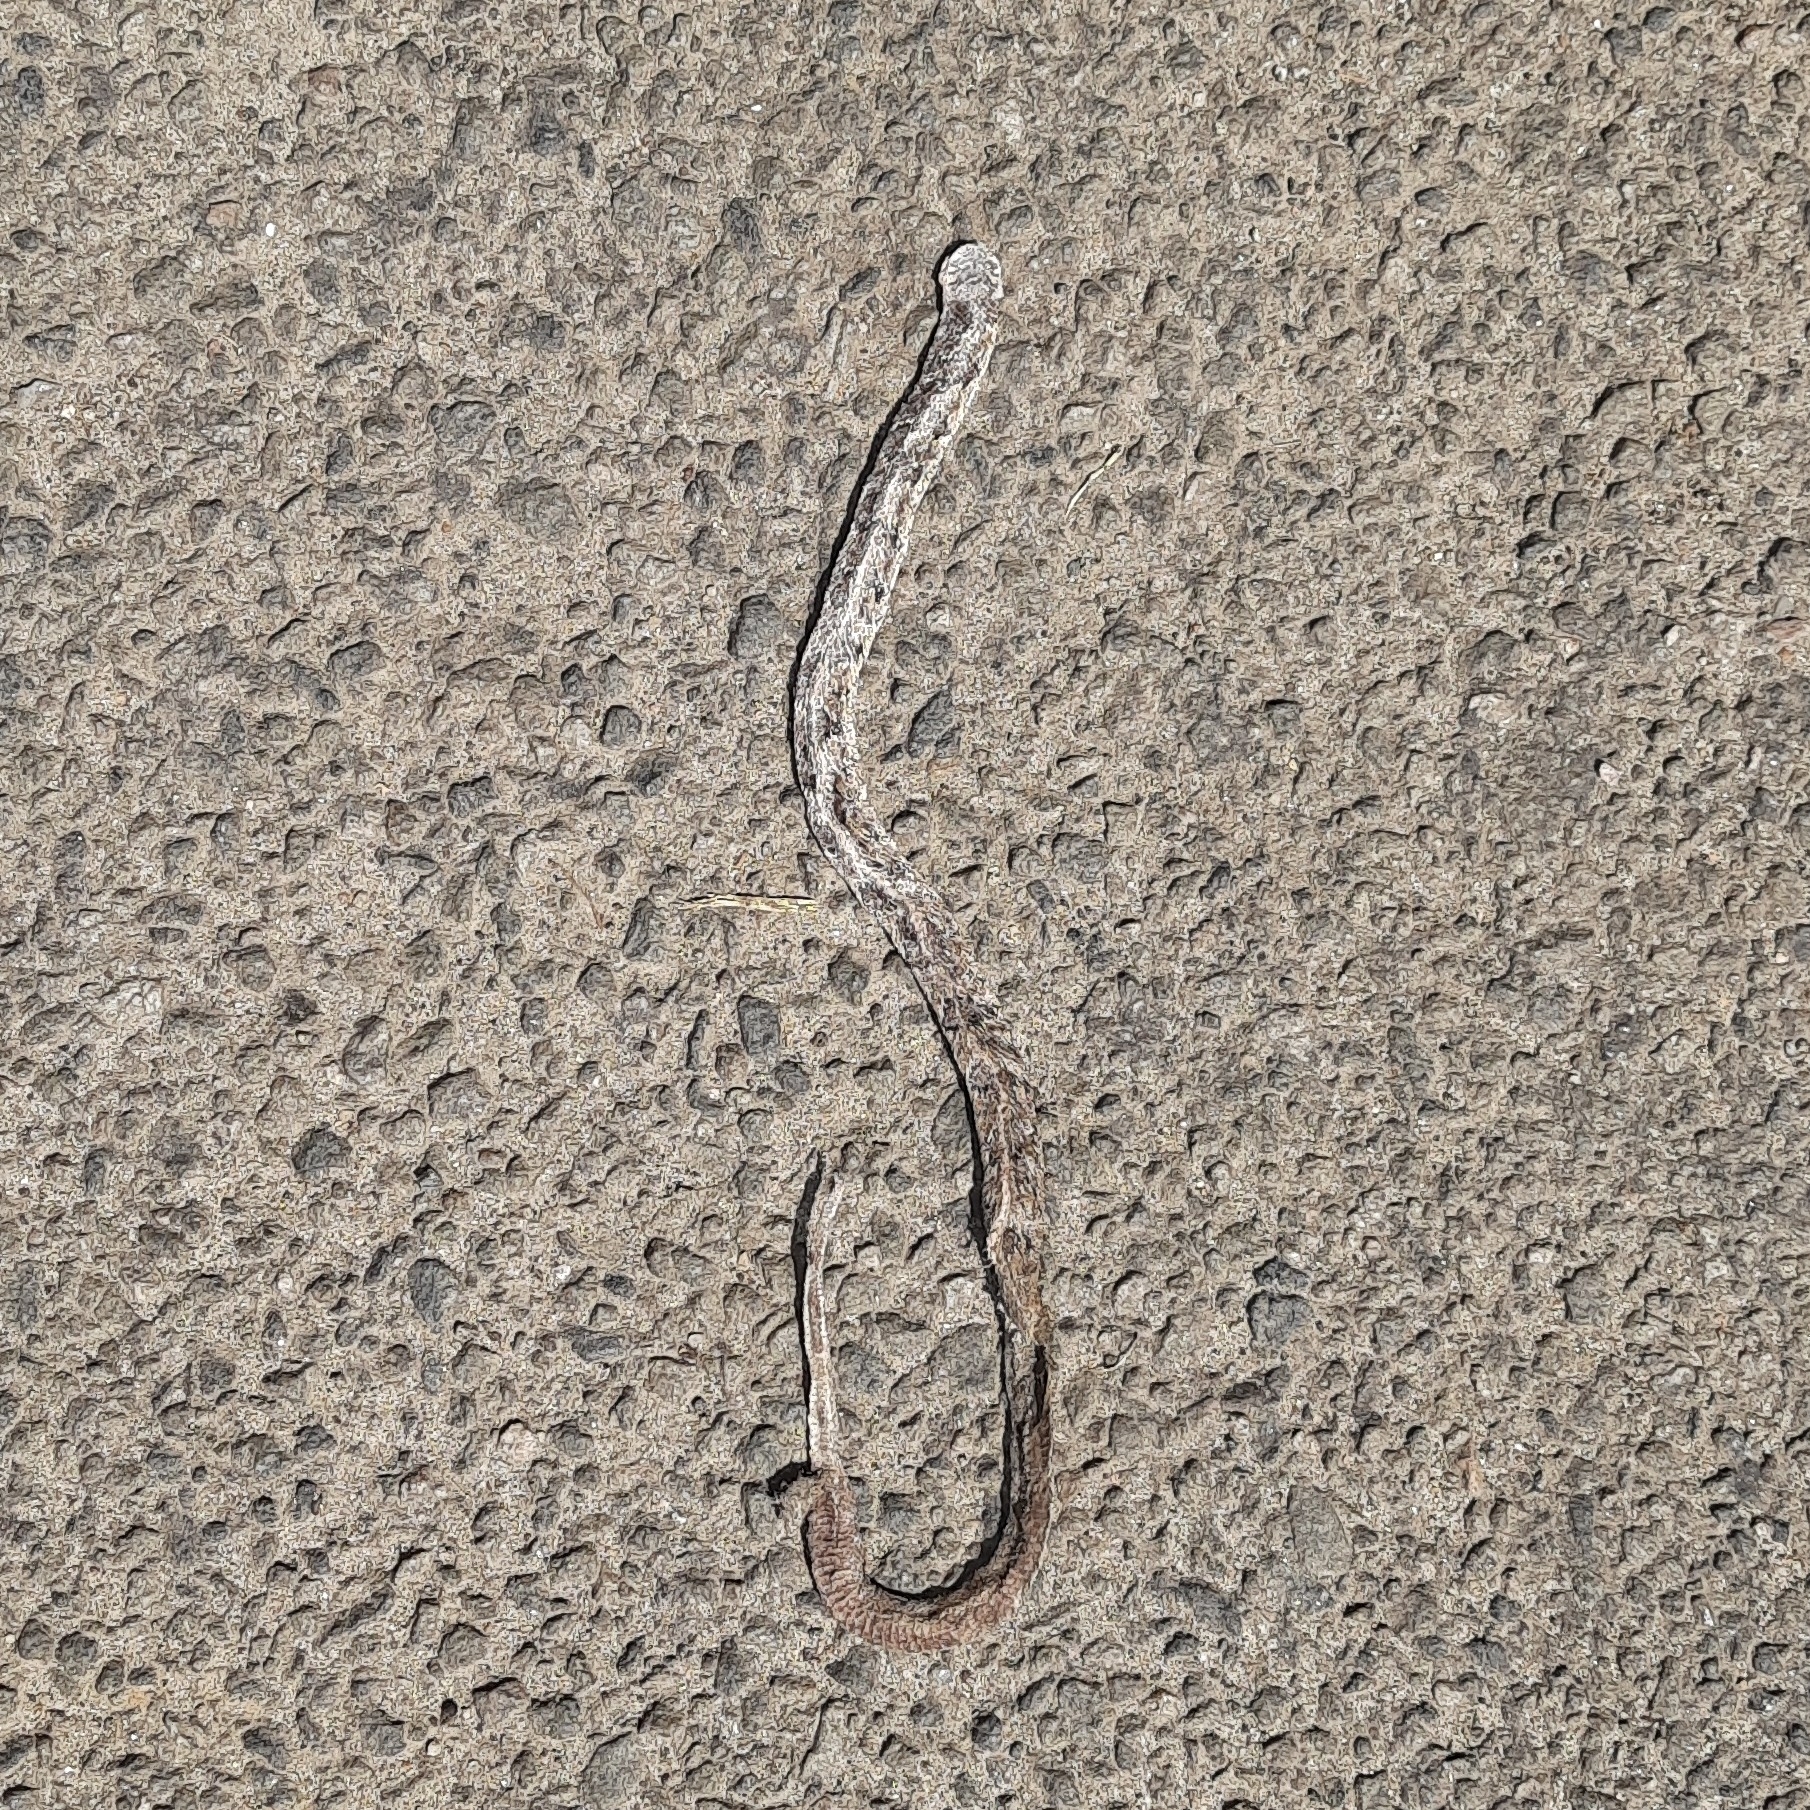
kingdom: Animalia
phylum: Chordata
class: Squamata
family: Colubridae
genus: Oligodon
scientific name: Oligodon taeniolatus
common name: Loos snake
